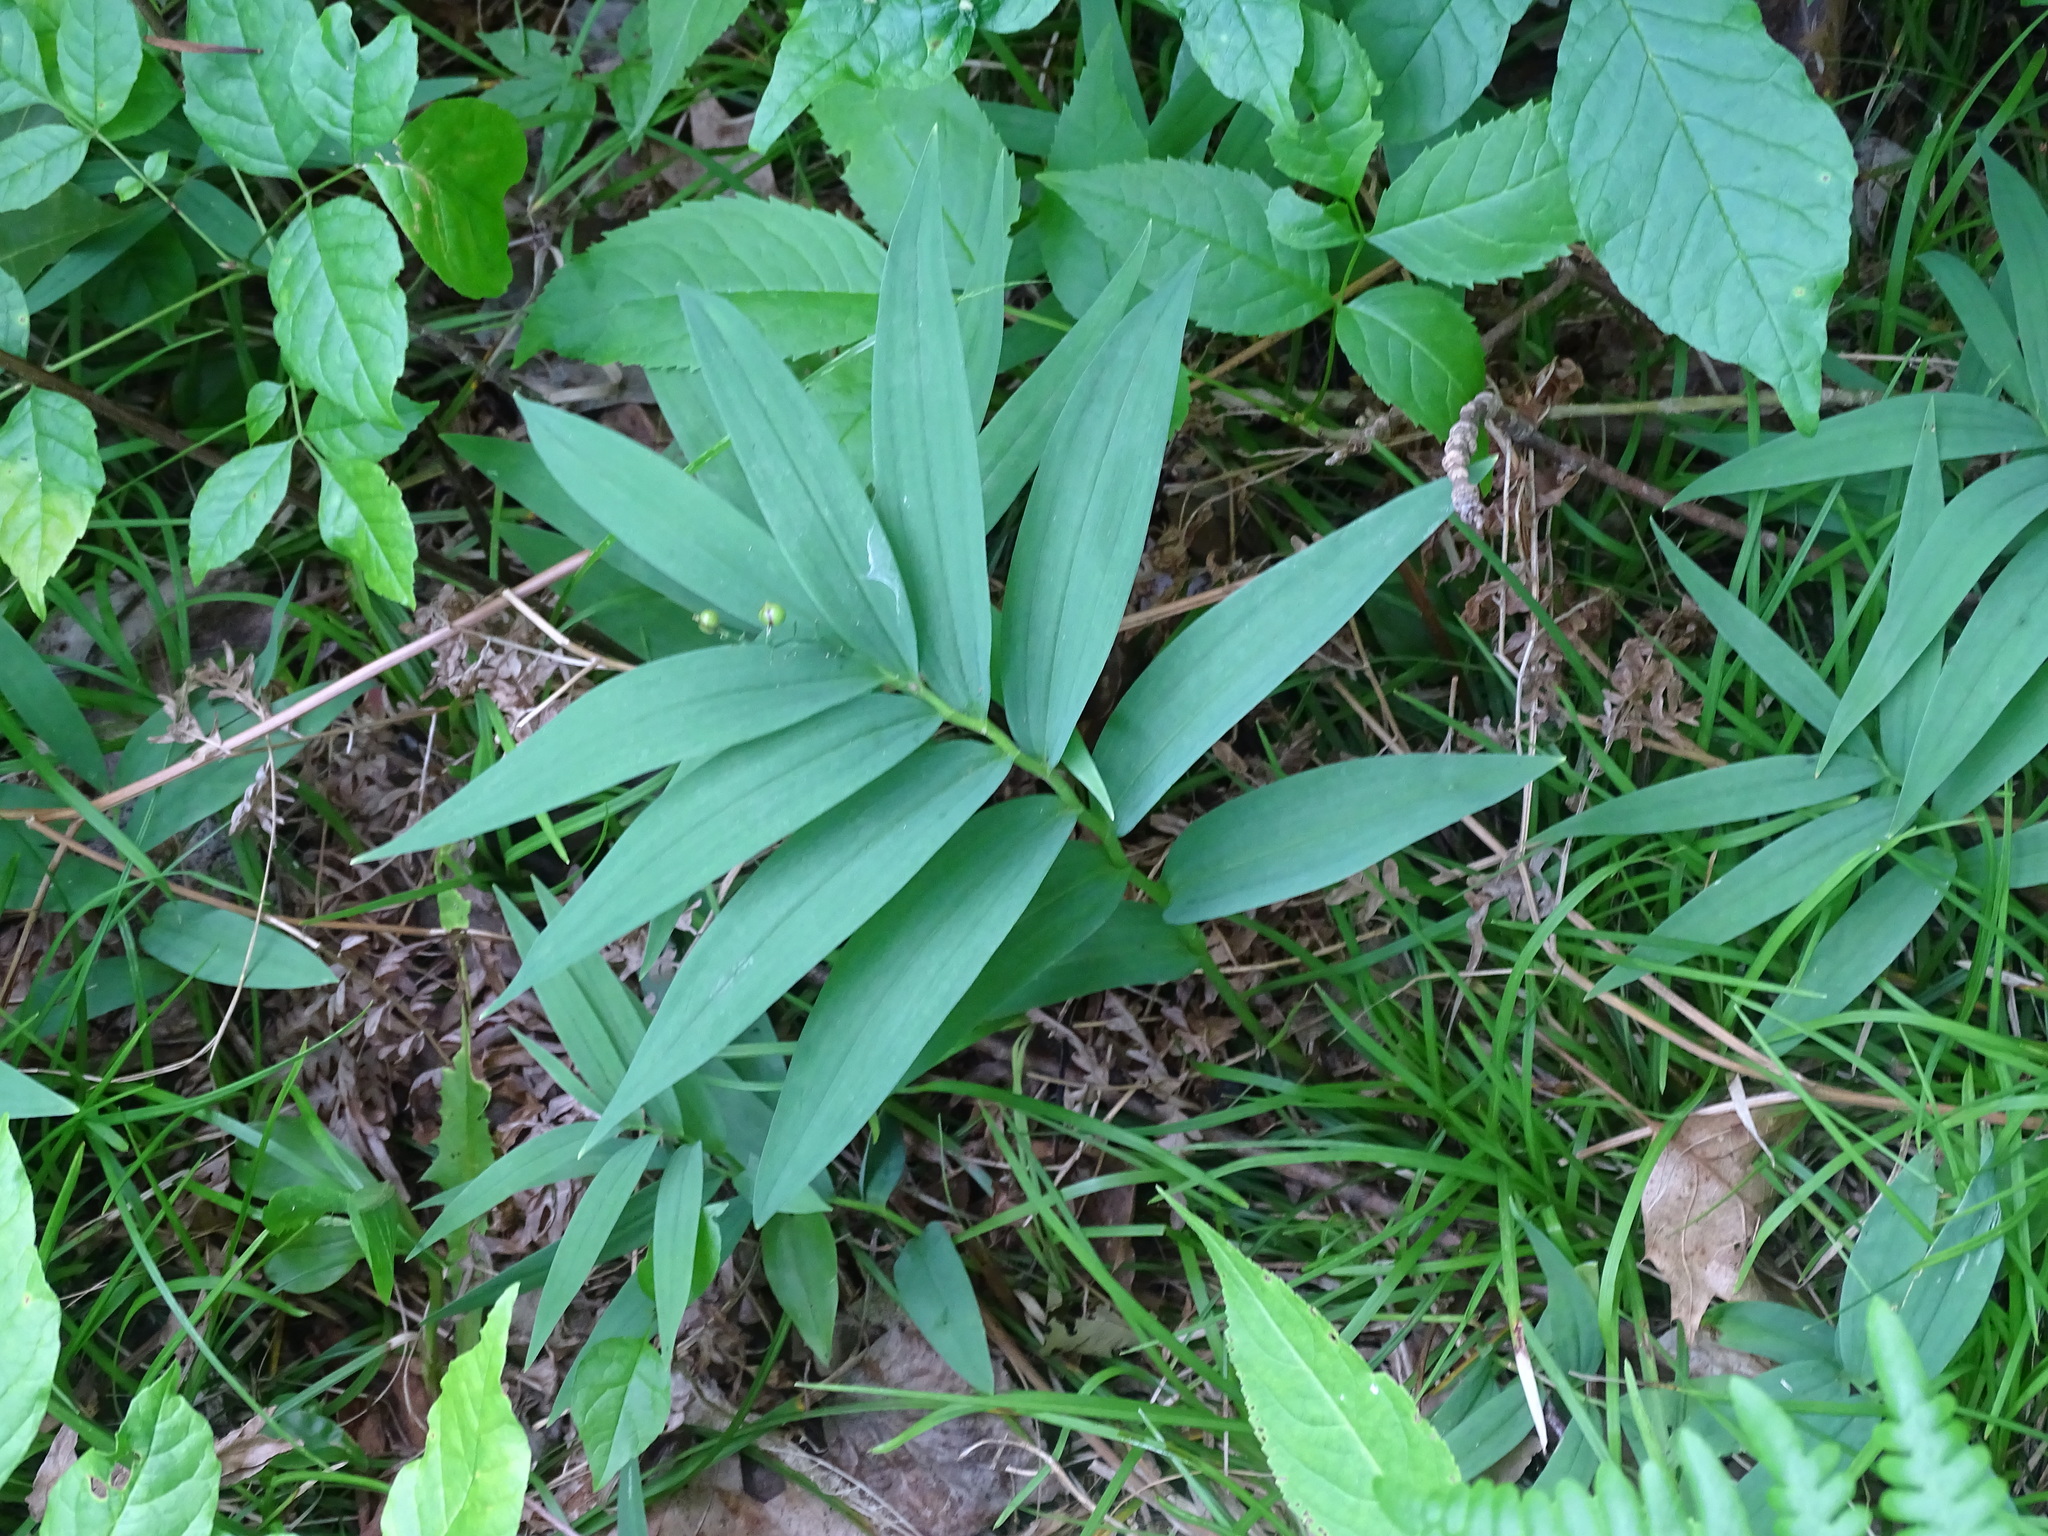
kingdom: Plantae
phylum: Tracheophyta
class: Liliopsida
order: Asparagales
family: Asparagaceae
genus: Maianthemum
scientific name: Maianthemum stellatum
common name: Little false solomon's seal
